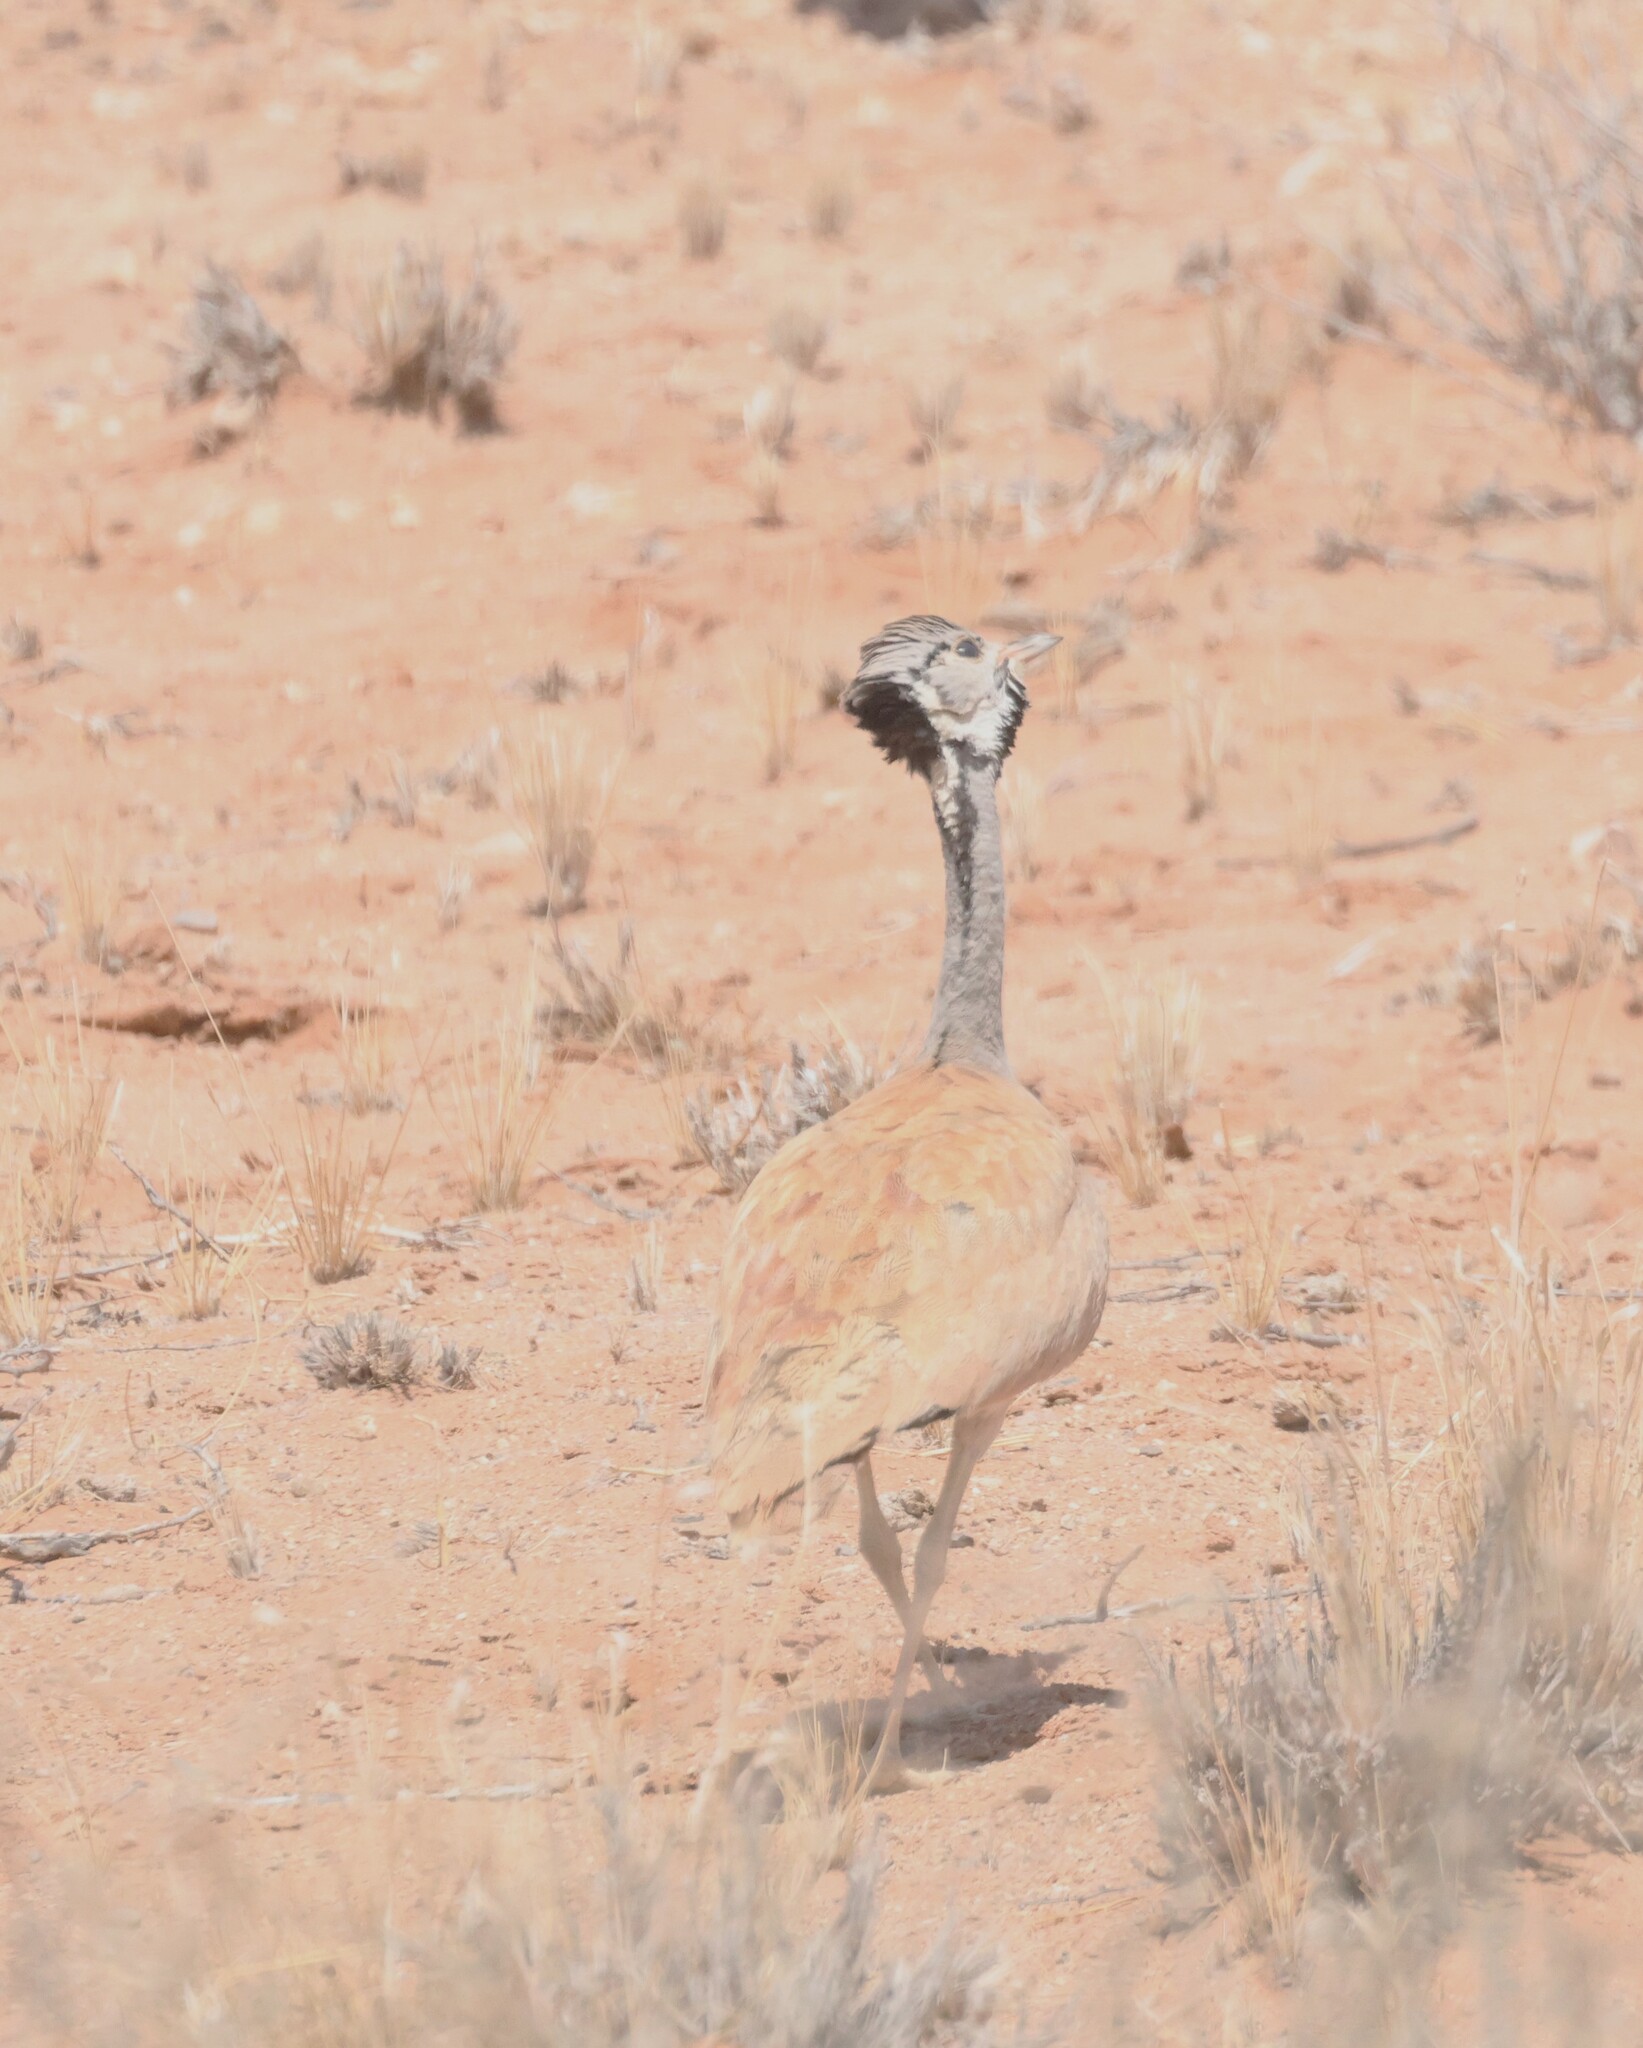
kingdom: Animalia
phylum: Chordata
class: Aves
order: Otidiformes
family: Otididae
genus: Heterotetrax
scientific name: Heterotetrax rueppelii
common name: Rüppell's korhaan
